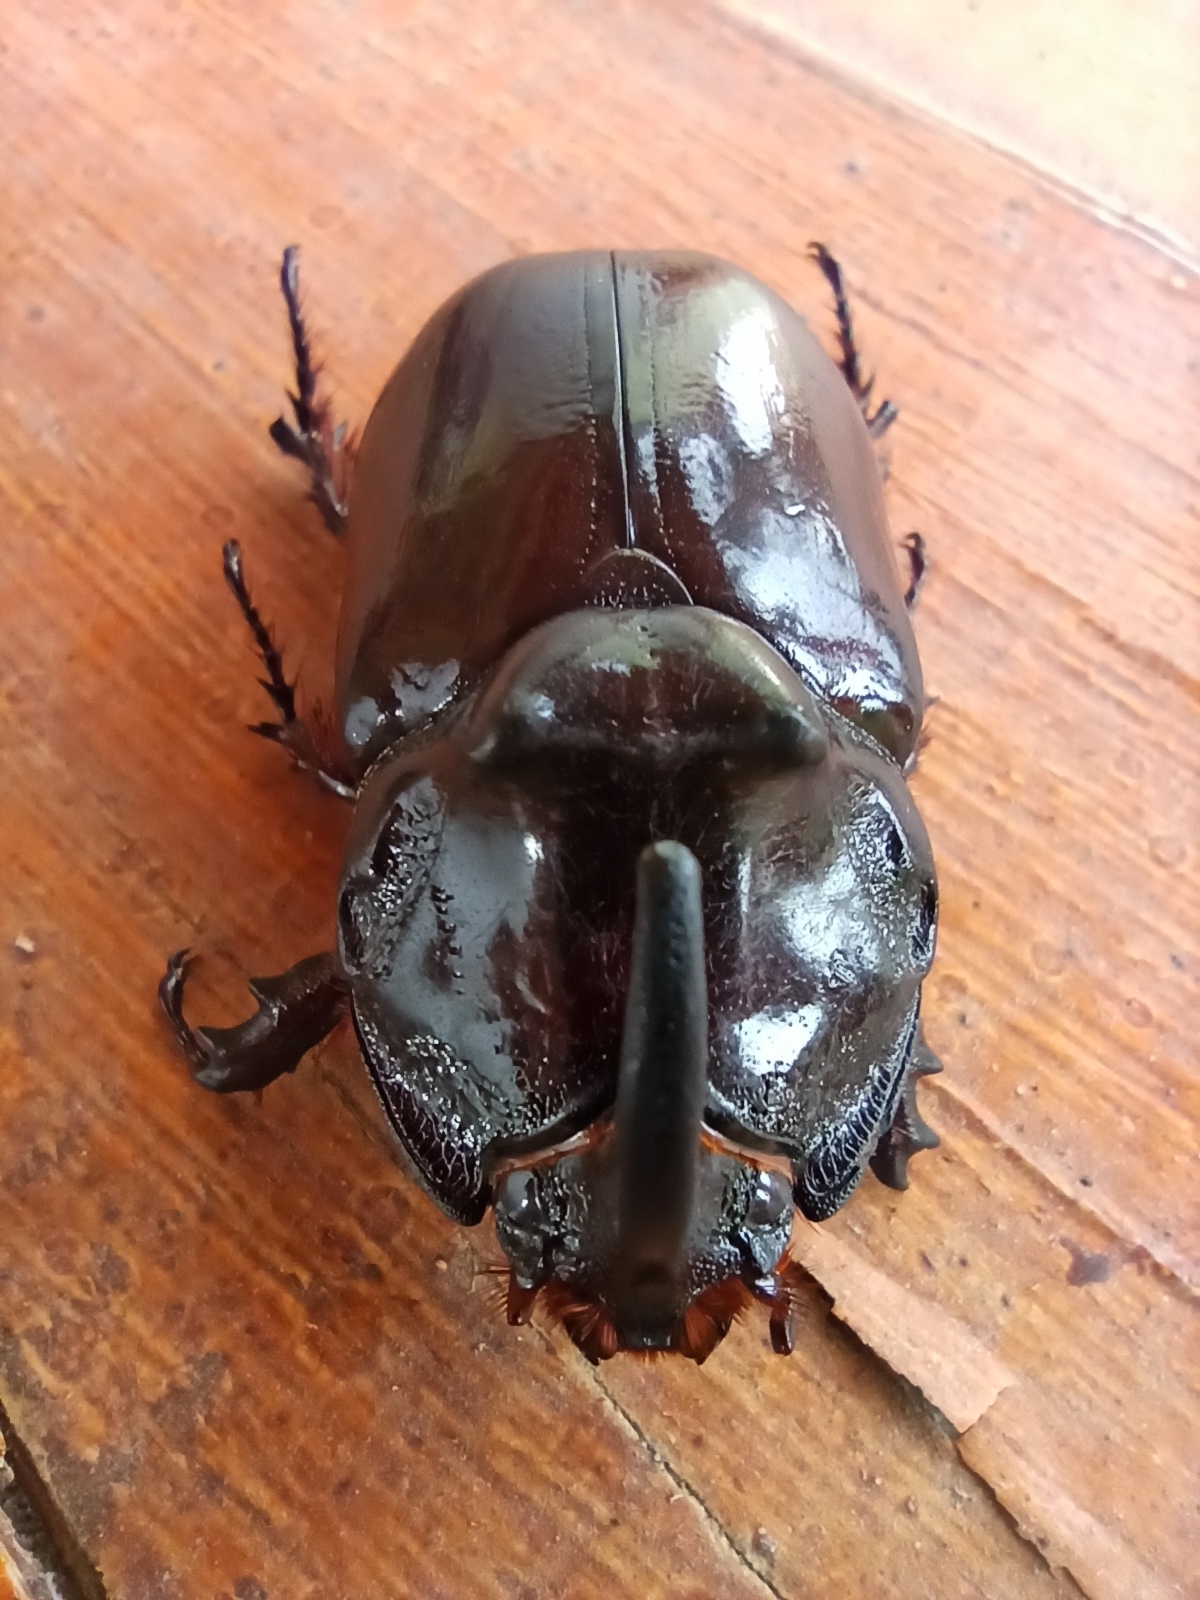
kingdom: Animalia
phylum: Arthropoda
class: Insecta
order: Coleoptera
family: Scarabaeidae
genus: Oryctes
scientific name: Oryctes nasicornis
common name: European rhinoceros beetle
